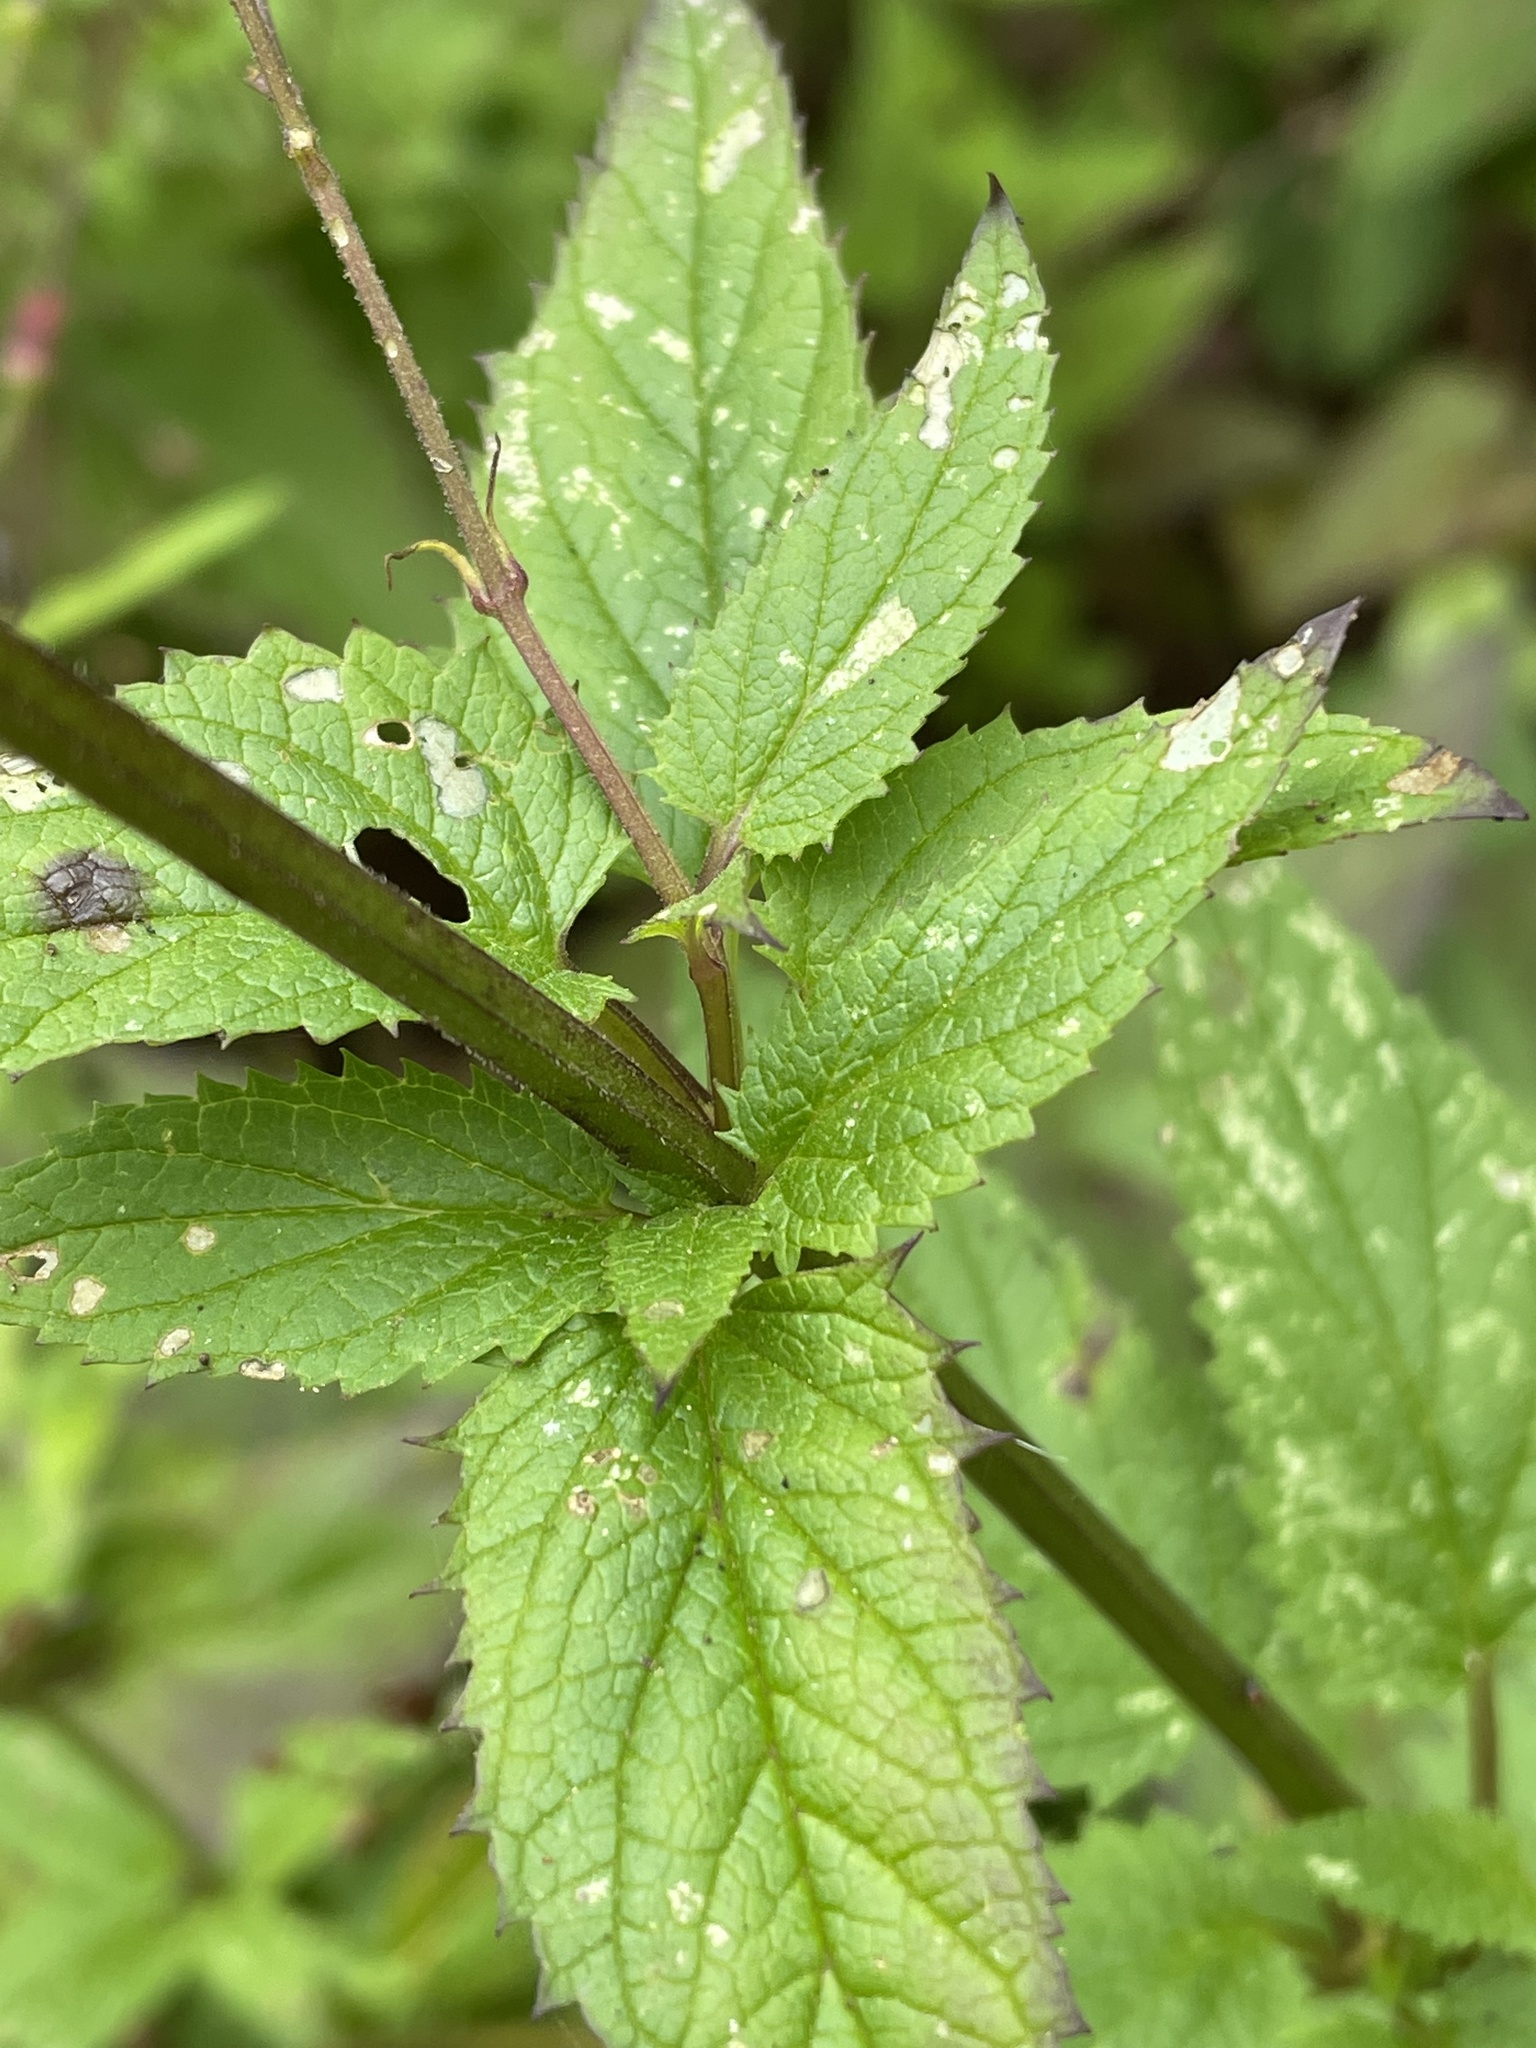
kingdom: Plantae
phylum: Tracheophyta
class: Magnoliopsida
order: Lamiales
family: Scrophulariaceae
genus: Scrophularia
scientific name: Scrophularia californica
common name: California figwort
